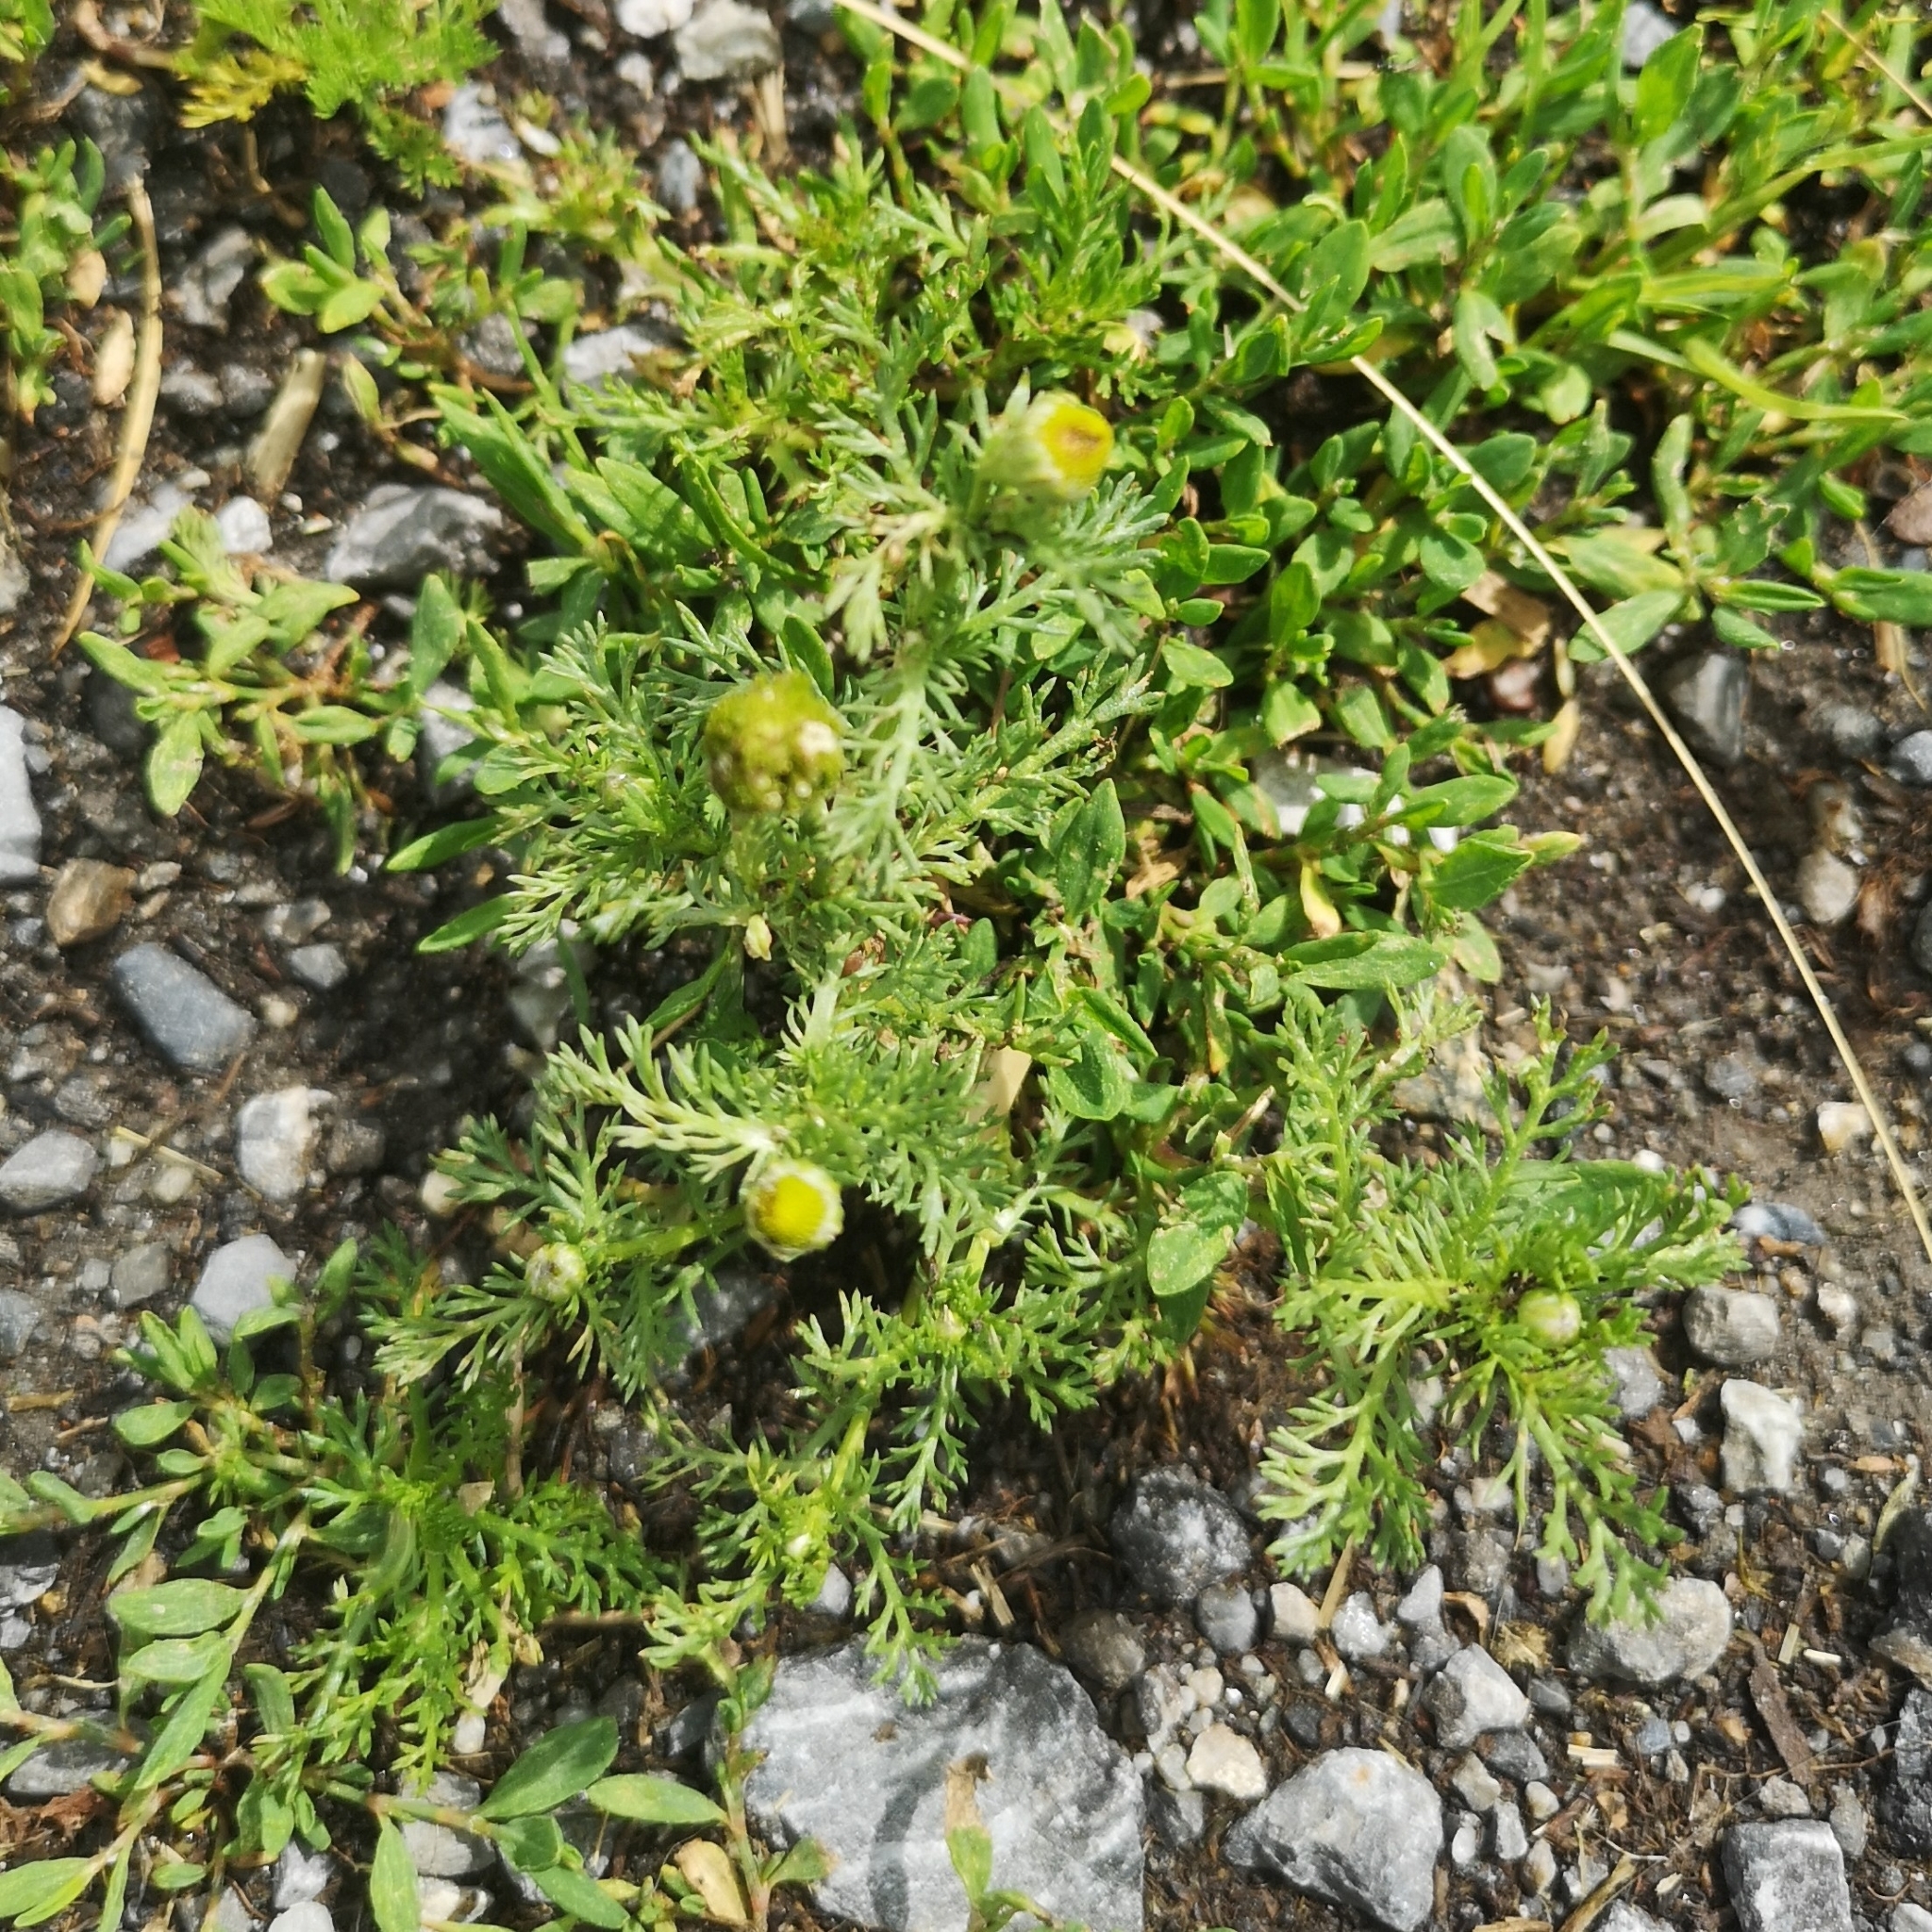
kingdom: Plantae
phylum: Tracheophyta
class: Magnoliopsida
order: Asterales
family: Asteraceae
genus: Matricaria
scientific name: Matricaria discoidea
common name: Disc mayweed
